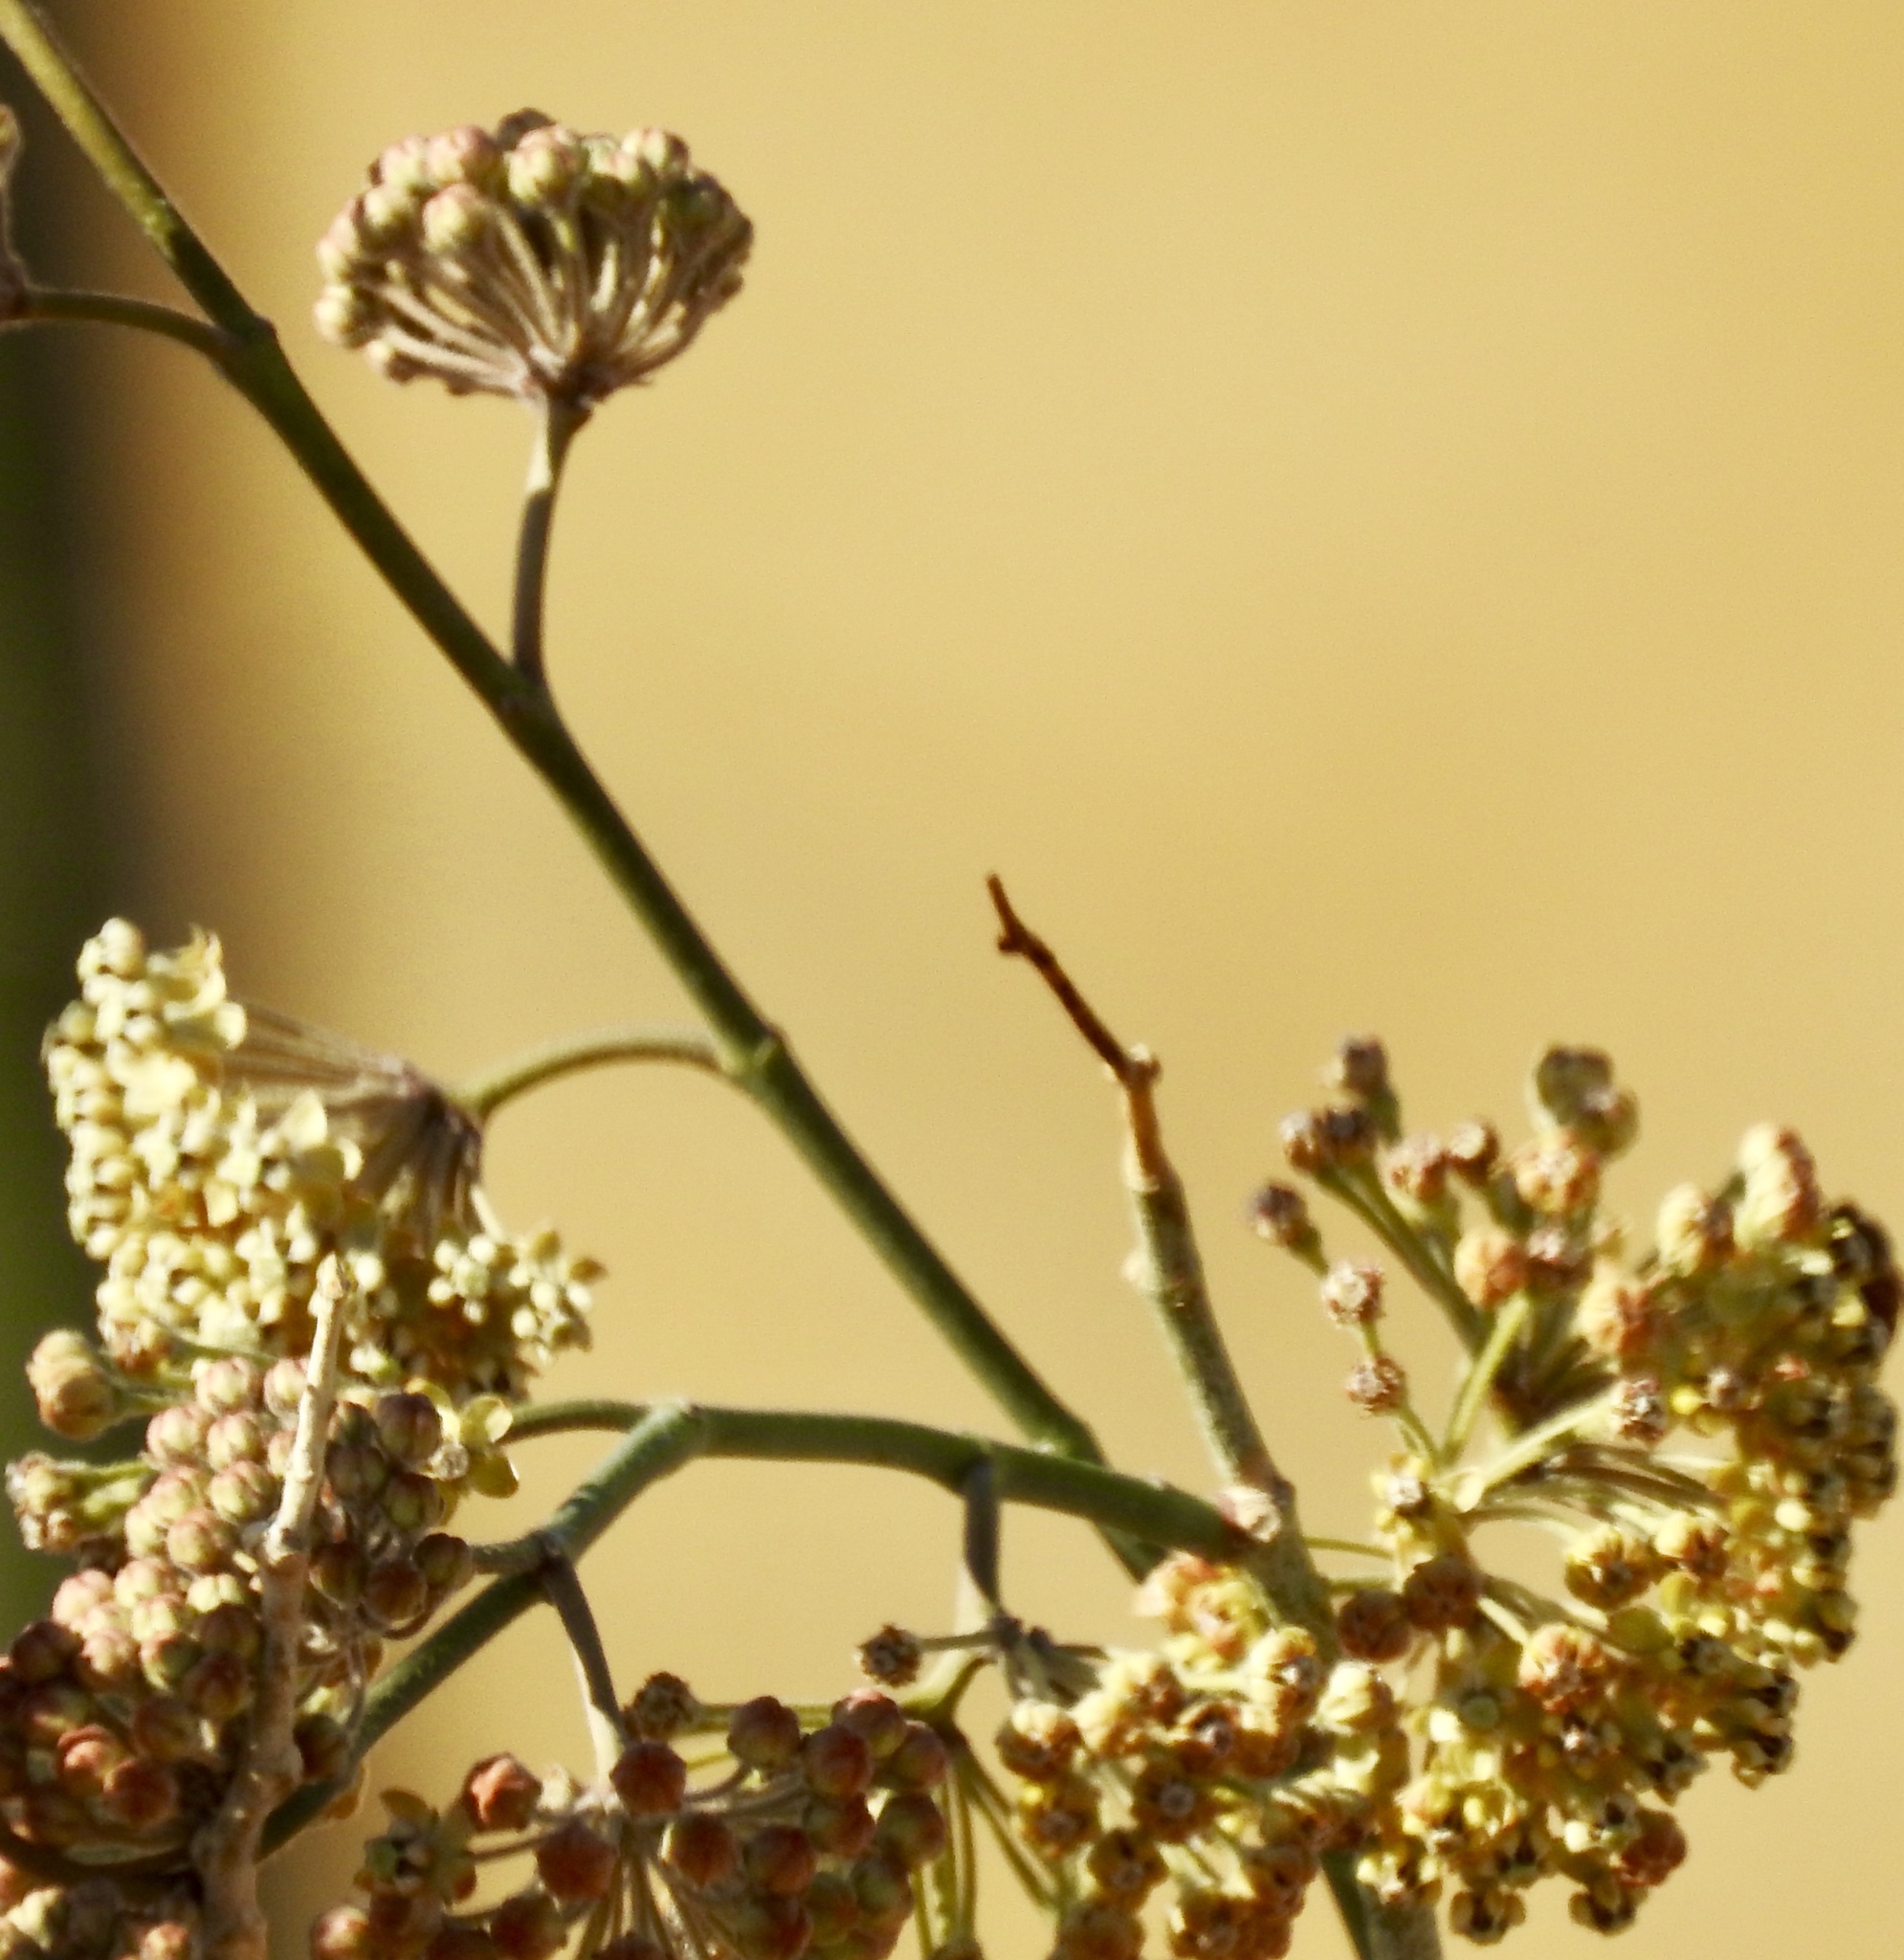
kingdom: Plantae
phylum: Tracheophyta
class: Magnoliopsida
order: Gentianales
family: Apocynaceae
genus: Asclepias
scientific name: Asclepias albicans
